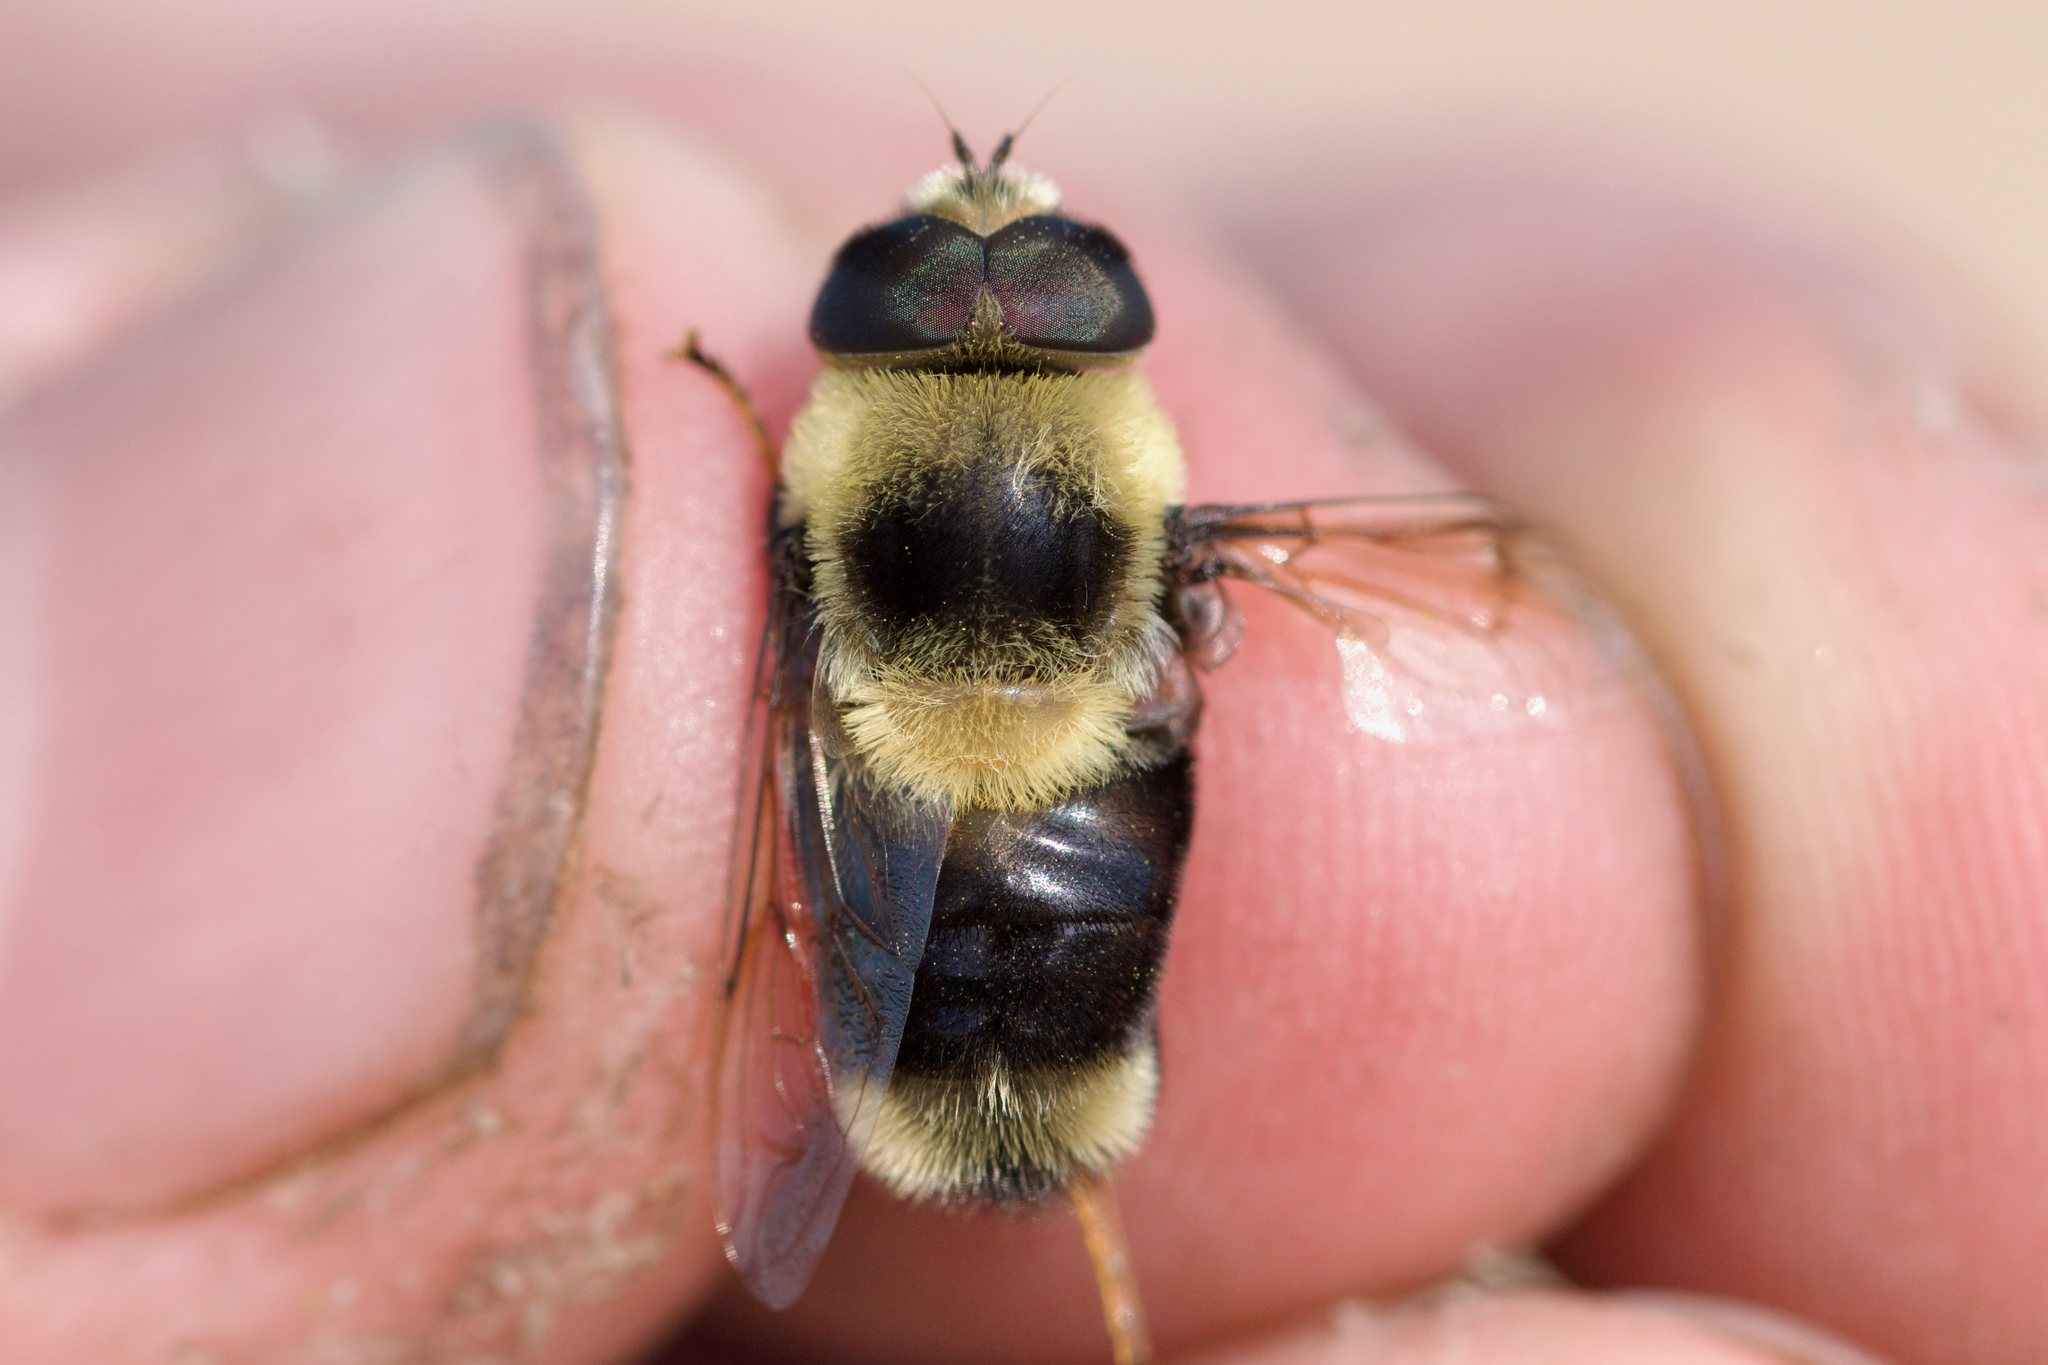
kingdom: Animalia
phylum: Arthropoda
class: Insecta
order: Diptera
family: Syrphidae
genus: Eristalis
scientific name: Eristalis flavipes
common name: Orange-legged drone fly
